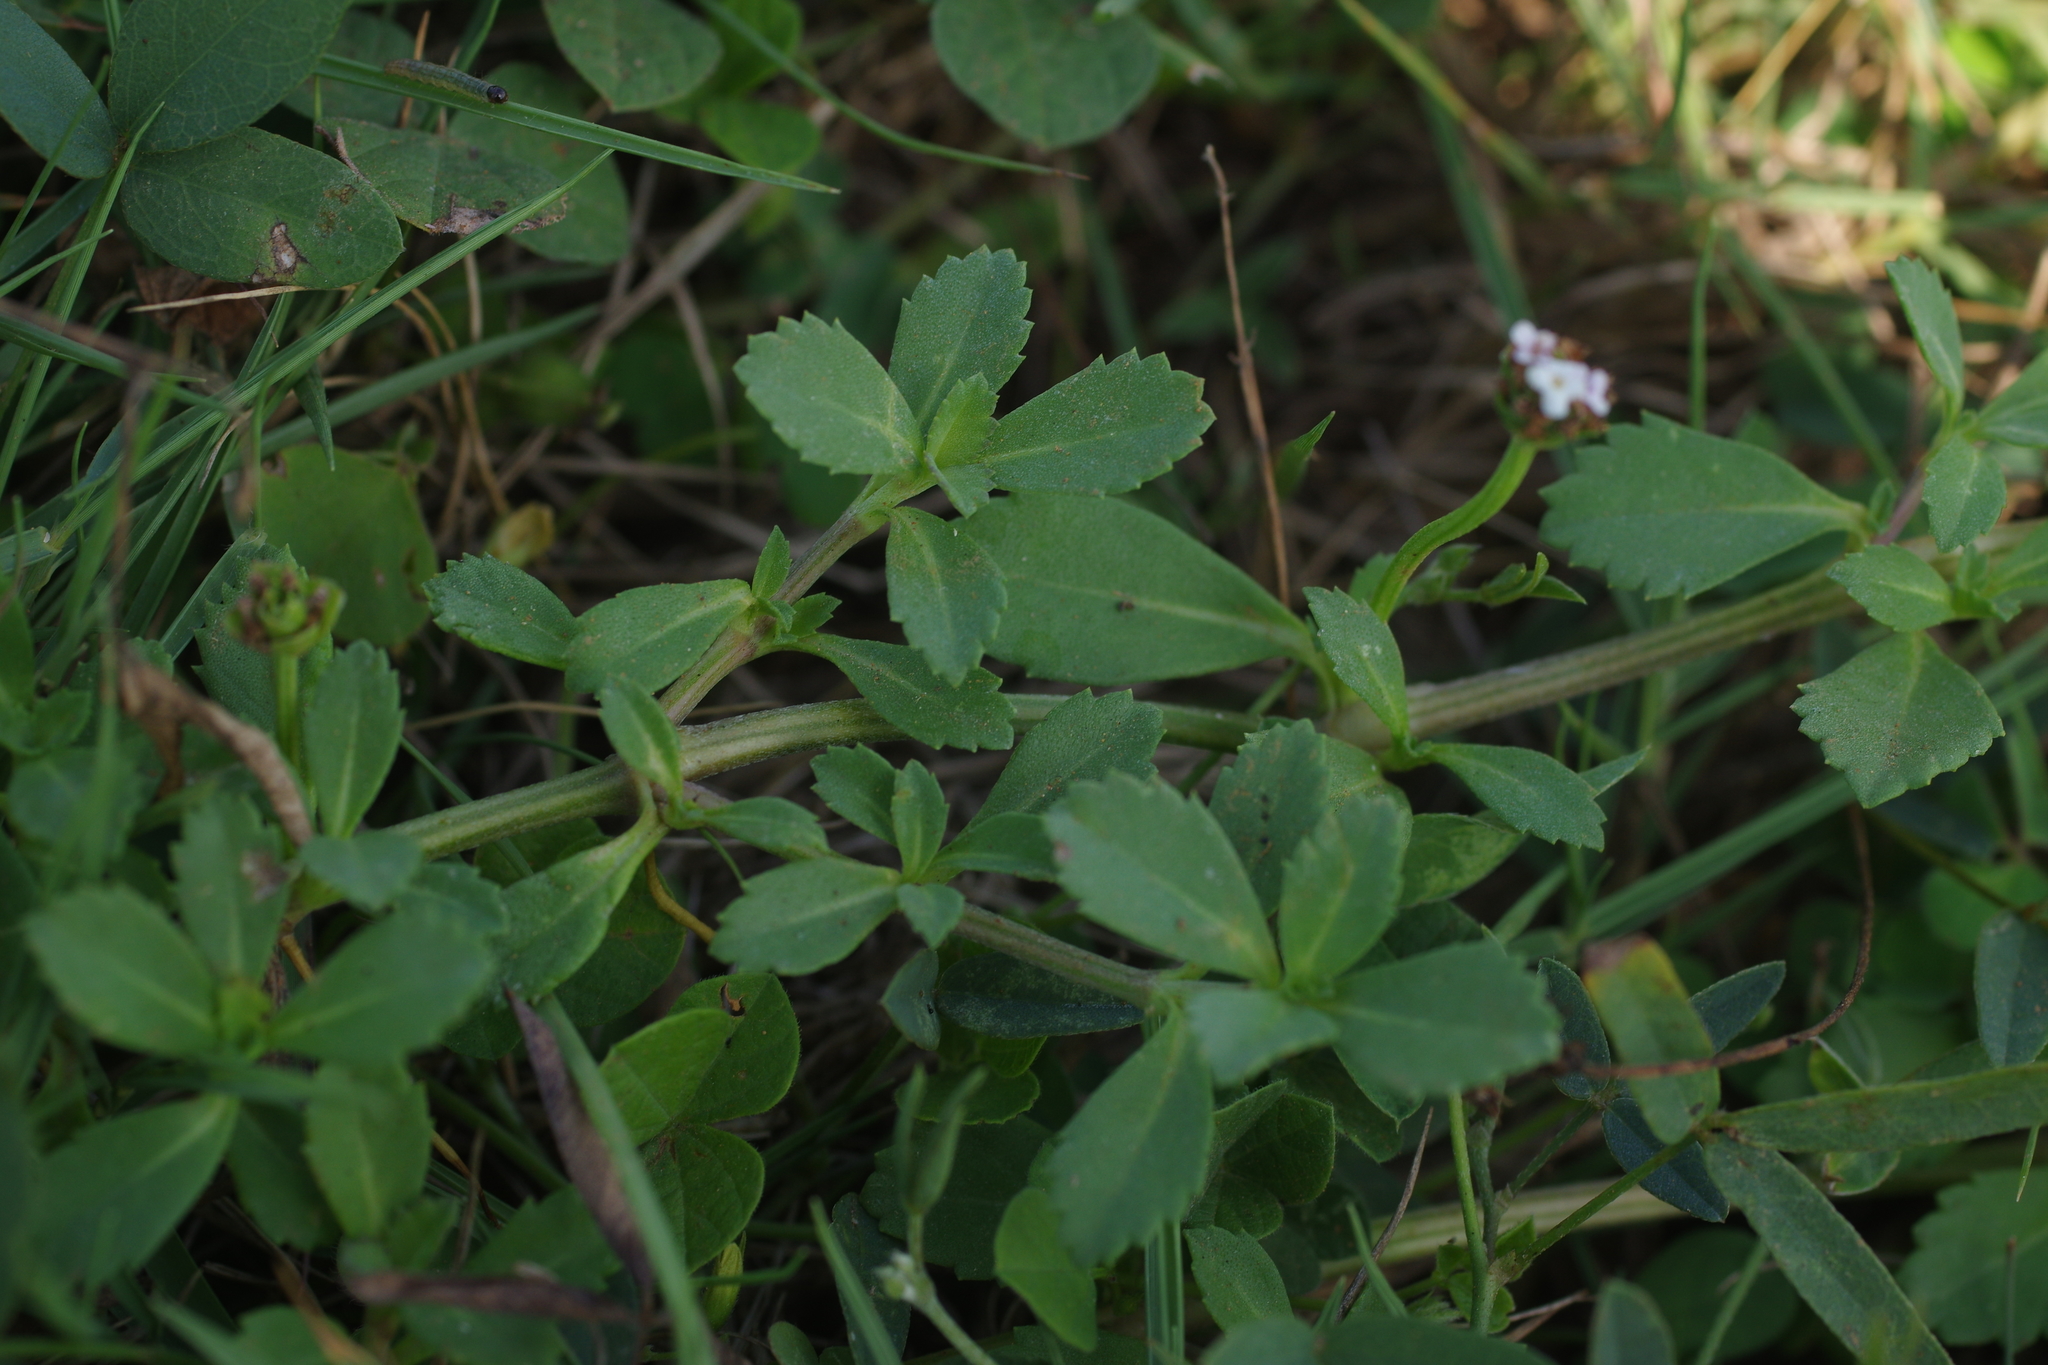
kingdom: Plantae
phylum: Tracheophyta
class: Magnoliopsida
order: Lamiales
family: Verbenaceae
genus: Phyla
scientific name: Phyla nodiflora
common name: Frogfruit
